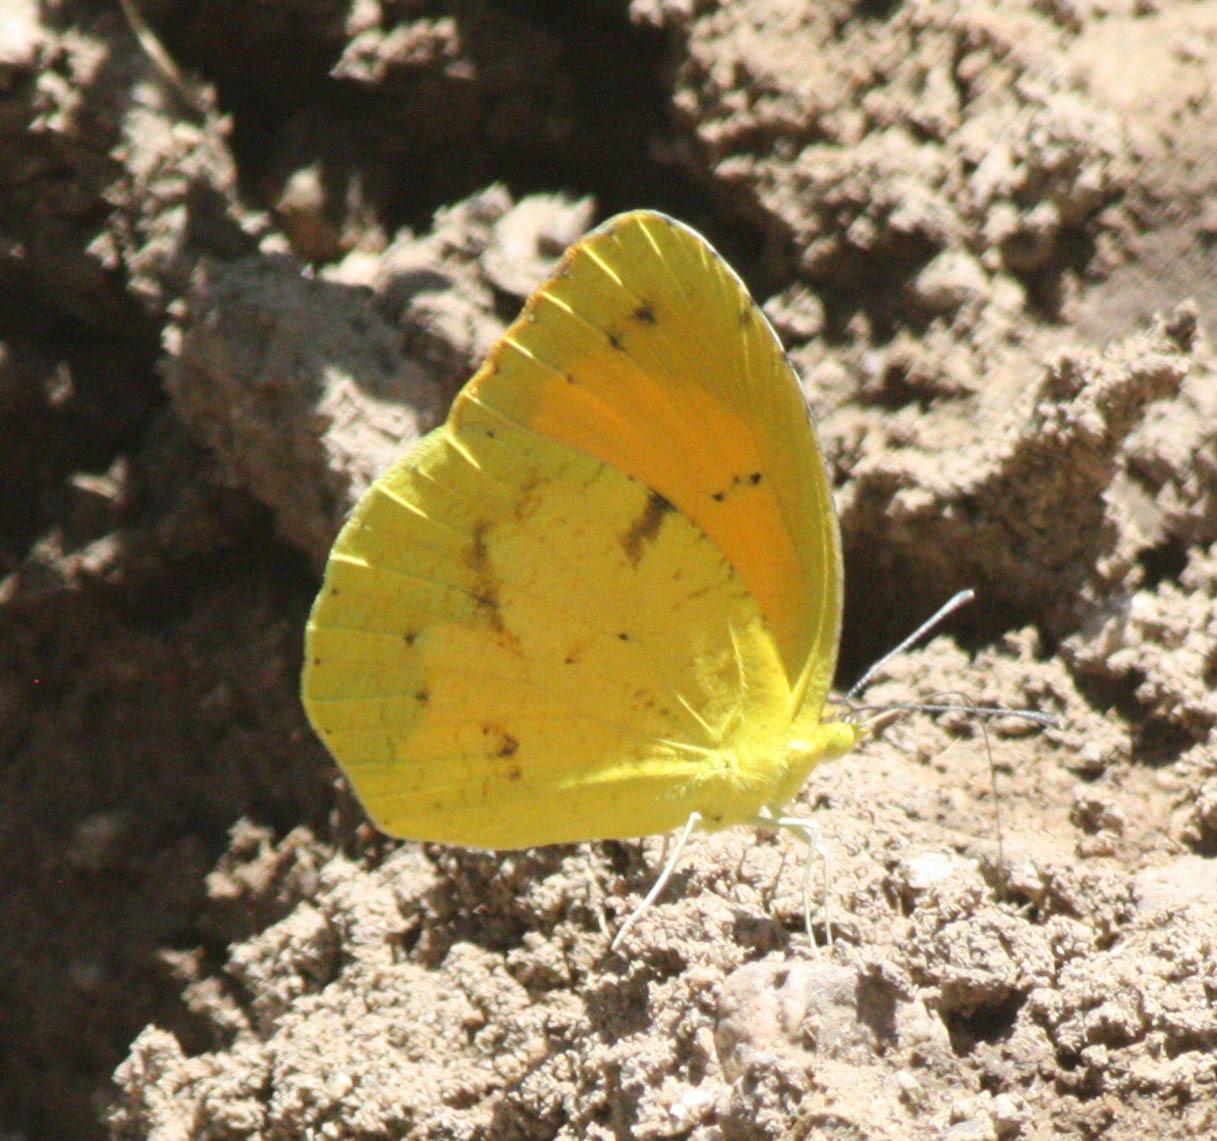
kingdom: Animalia
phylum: Arthropoda
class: Insecta
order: Lepidoptera
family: Pieridae
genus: Abaeis
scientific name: Abaeis nicippe
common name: Sleepy orange
